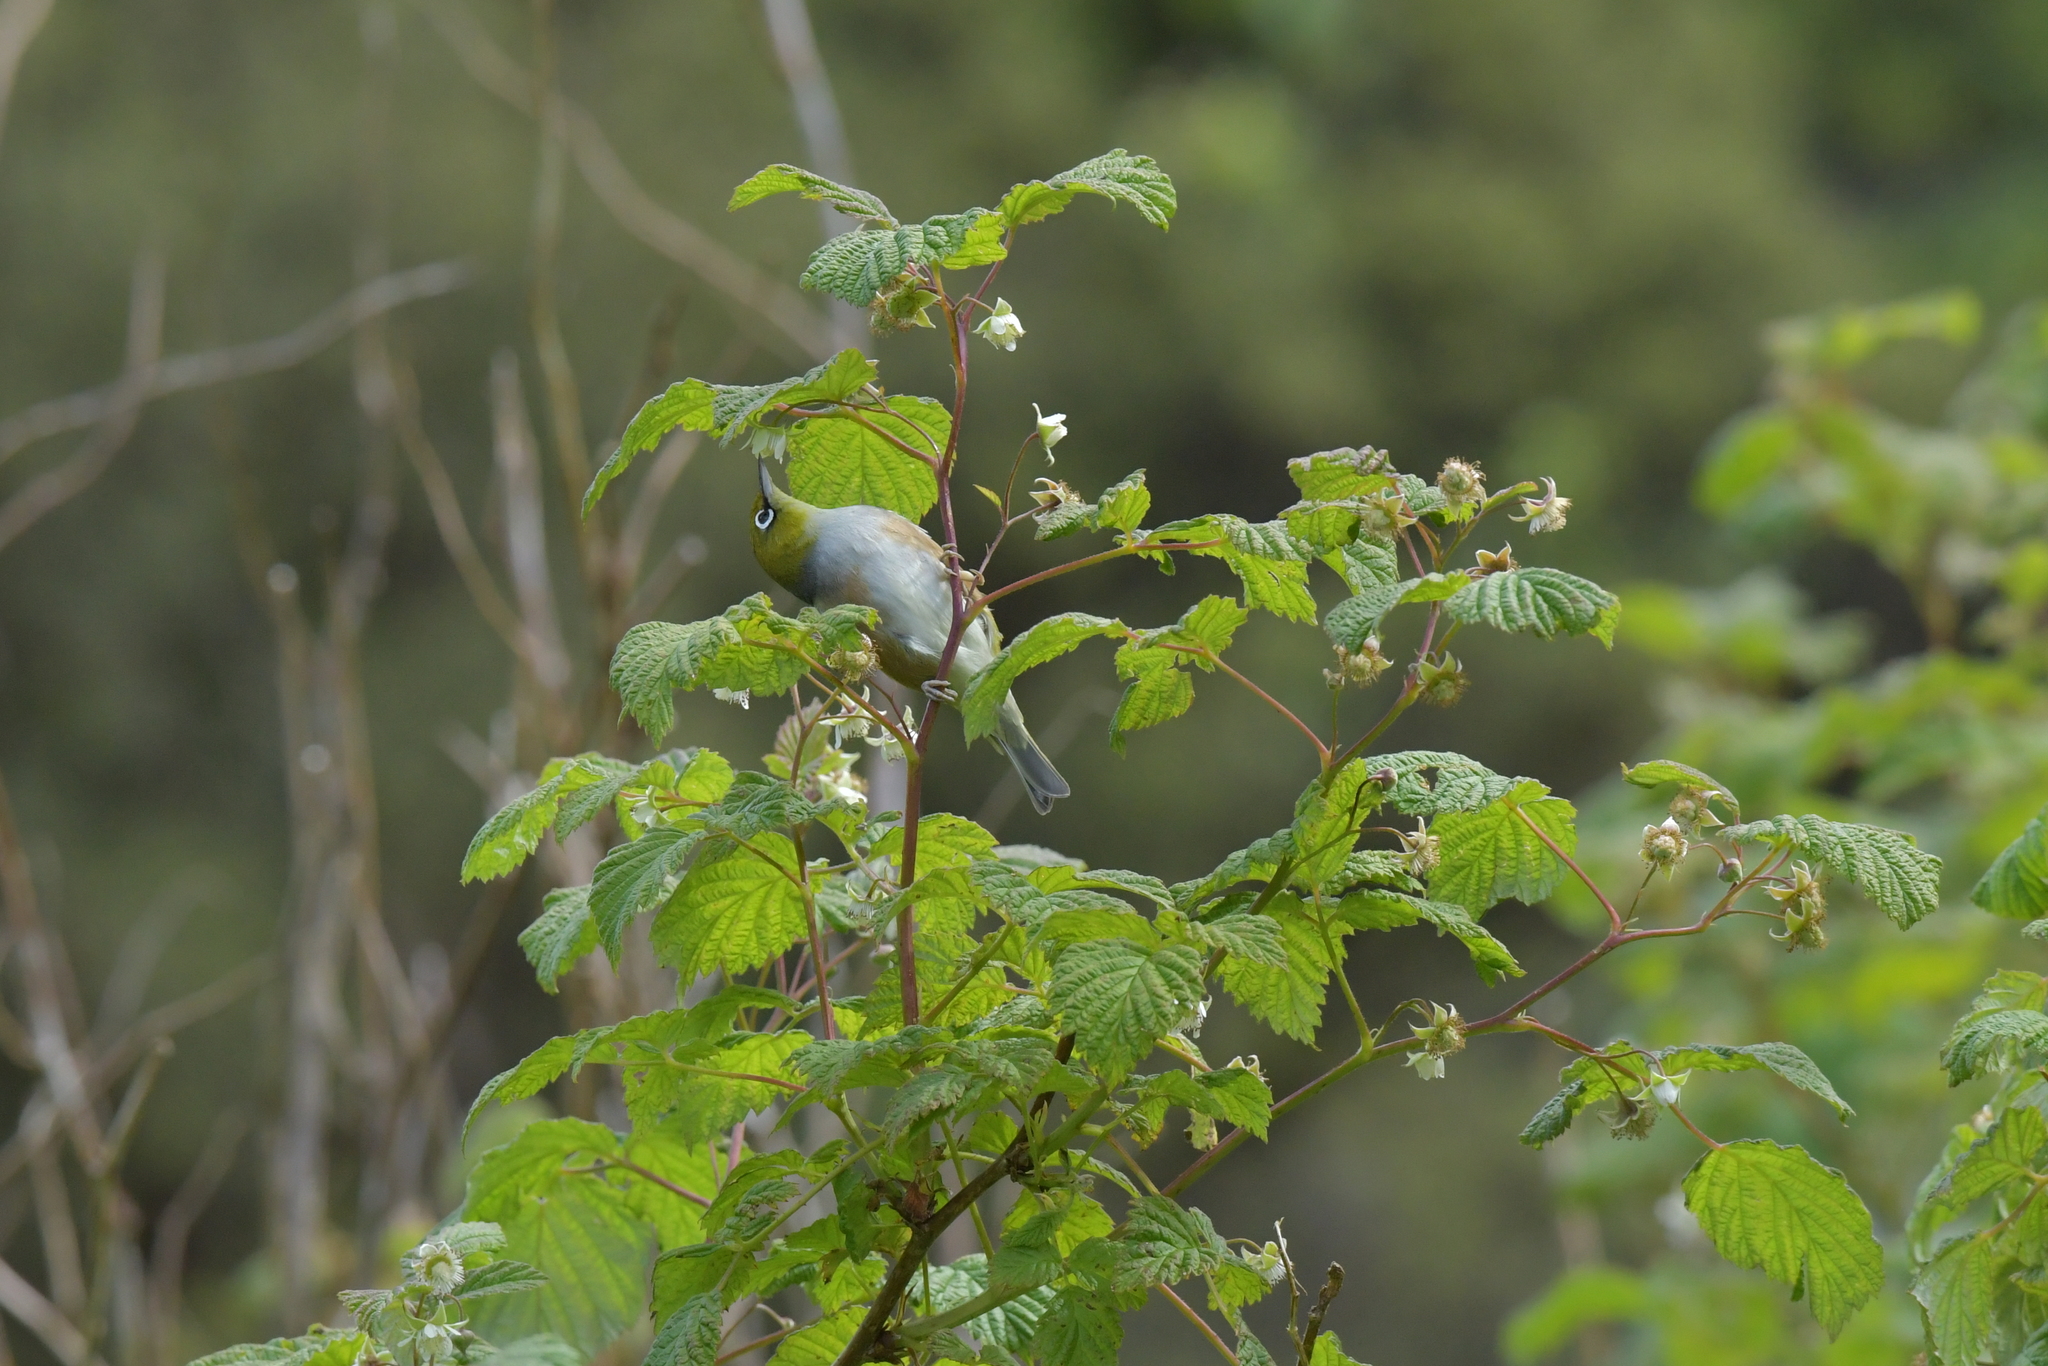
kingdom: Animalia
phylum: Chordata
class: Aves
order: Passeriformes
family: Zosteropidae
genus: Zosterops
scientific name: Zosterops lateralis
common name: Silvereye
